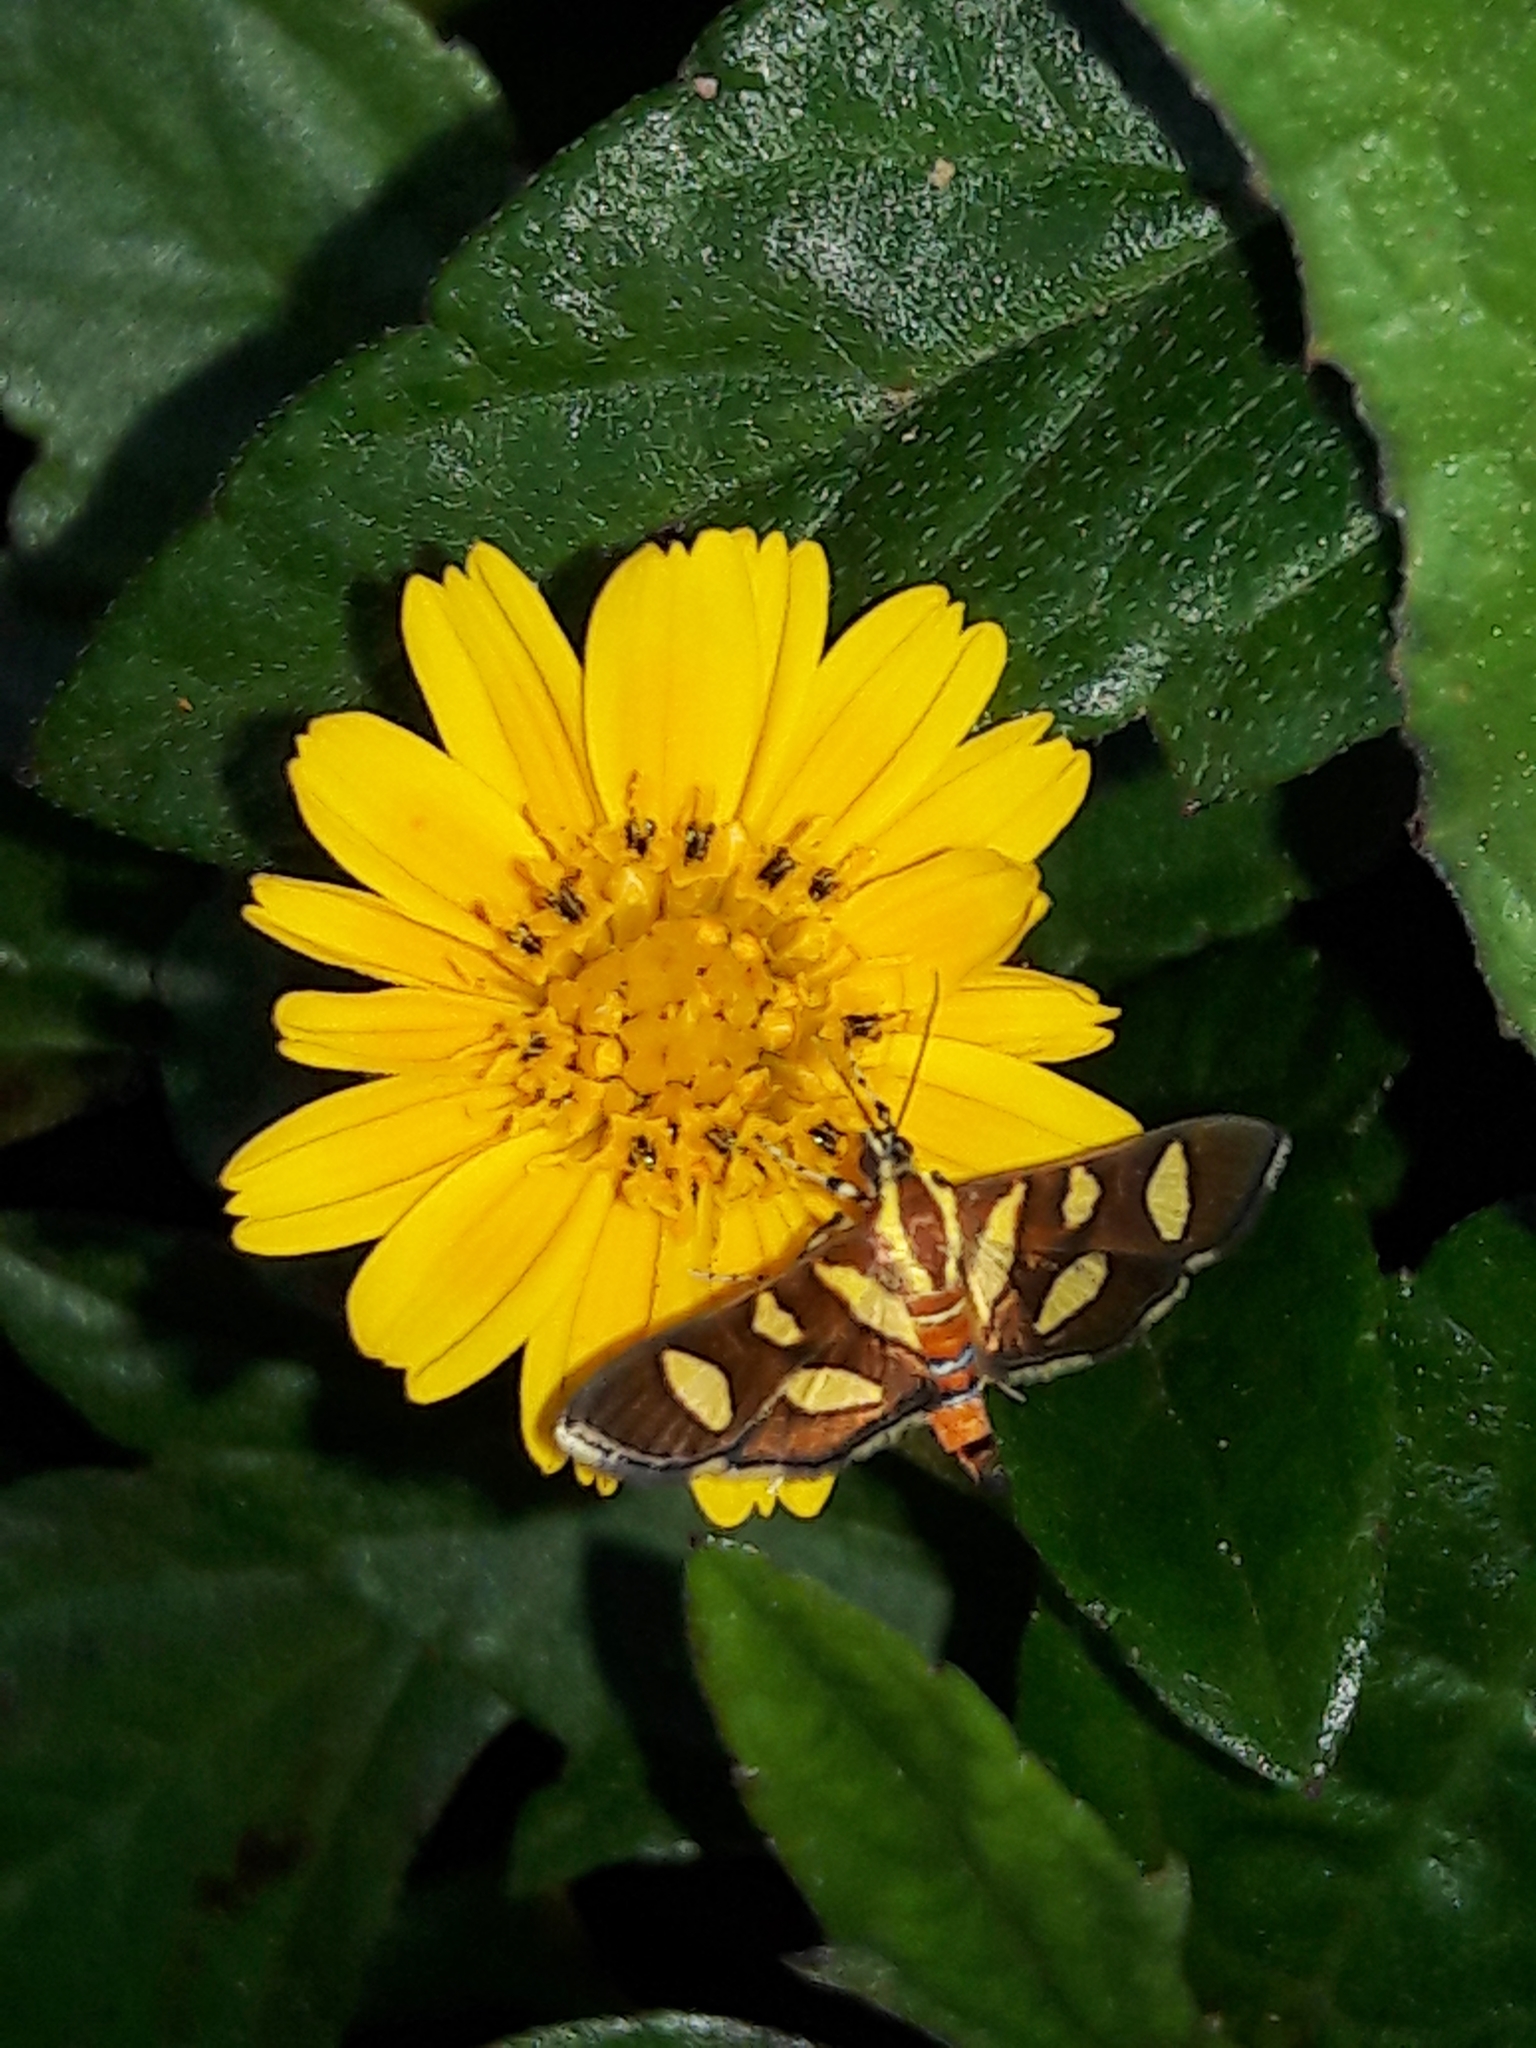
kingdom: Animalia
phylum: Arthropoda
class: Insecta
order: Lepidoptera
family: Crambidae
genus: Syngamia
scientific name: Syngamia florella
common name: Orange-spotted flower moth
